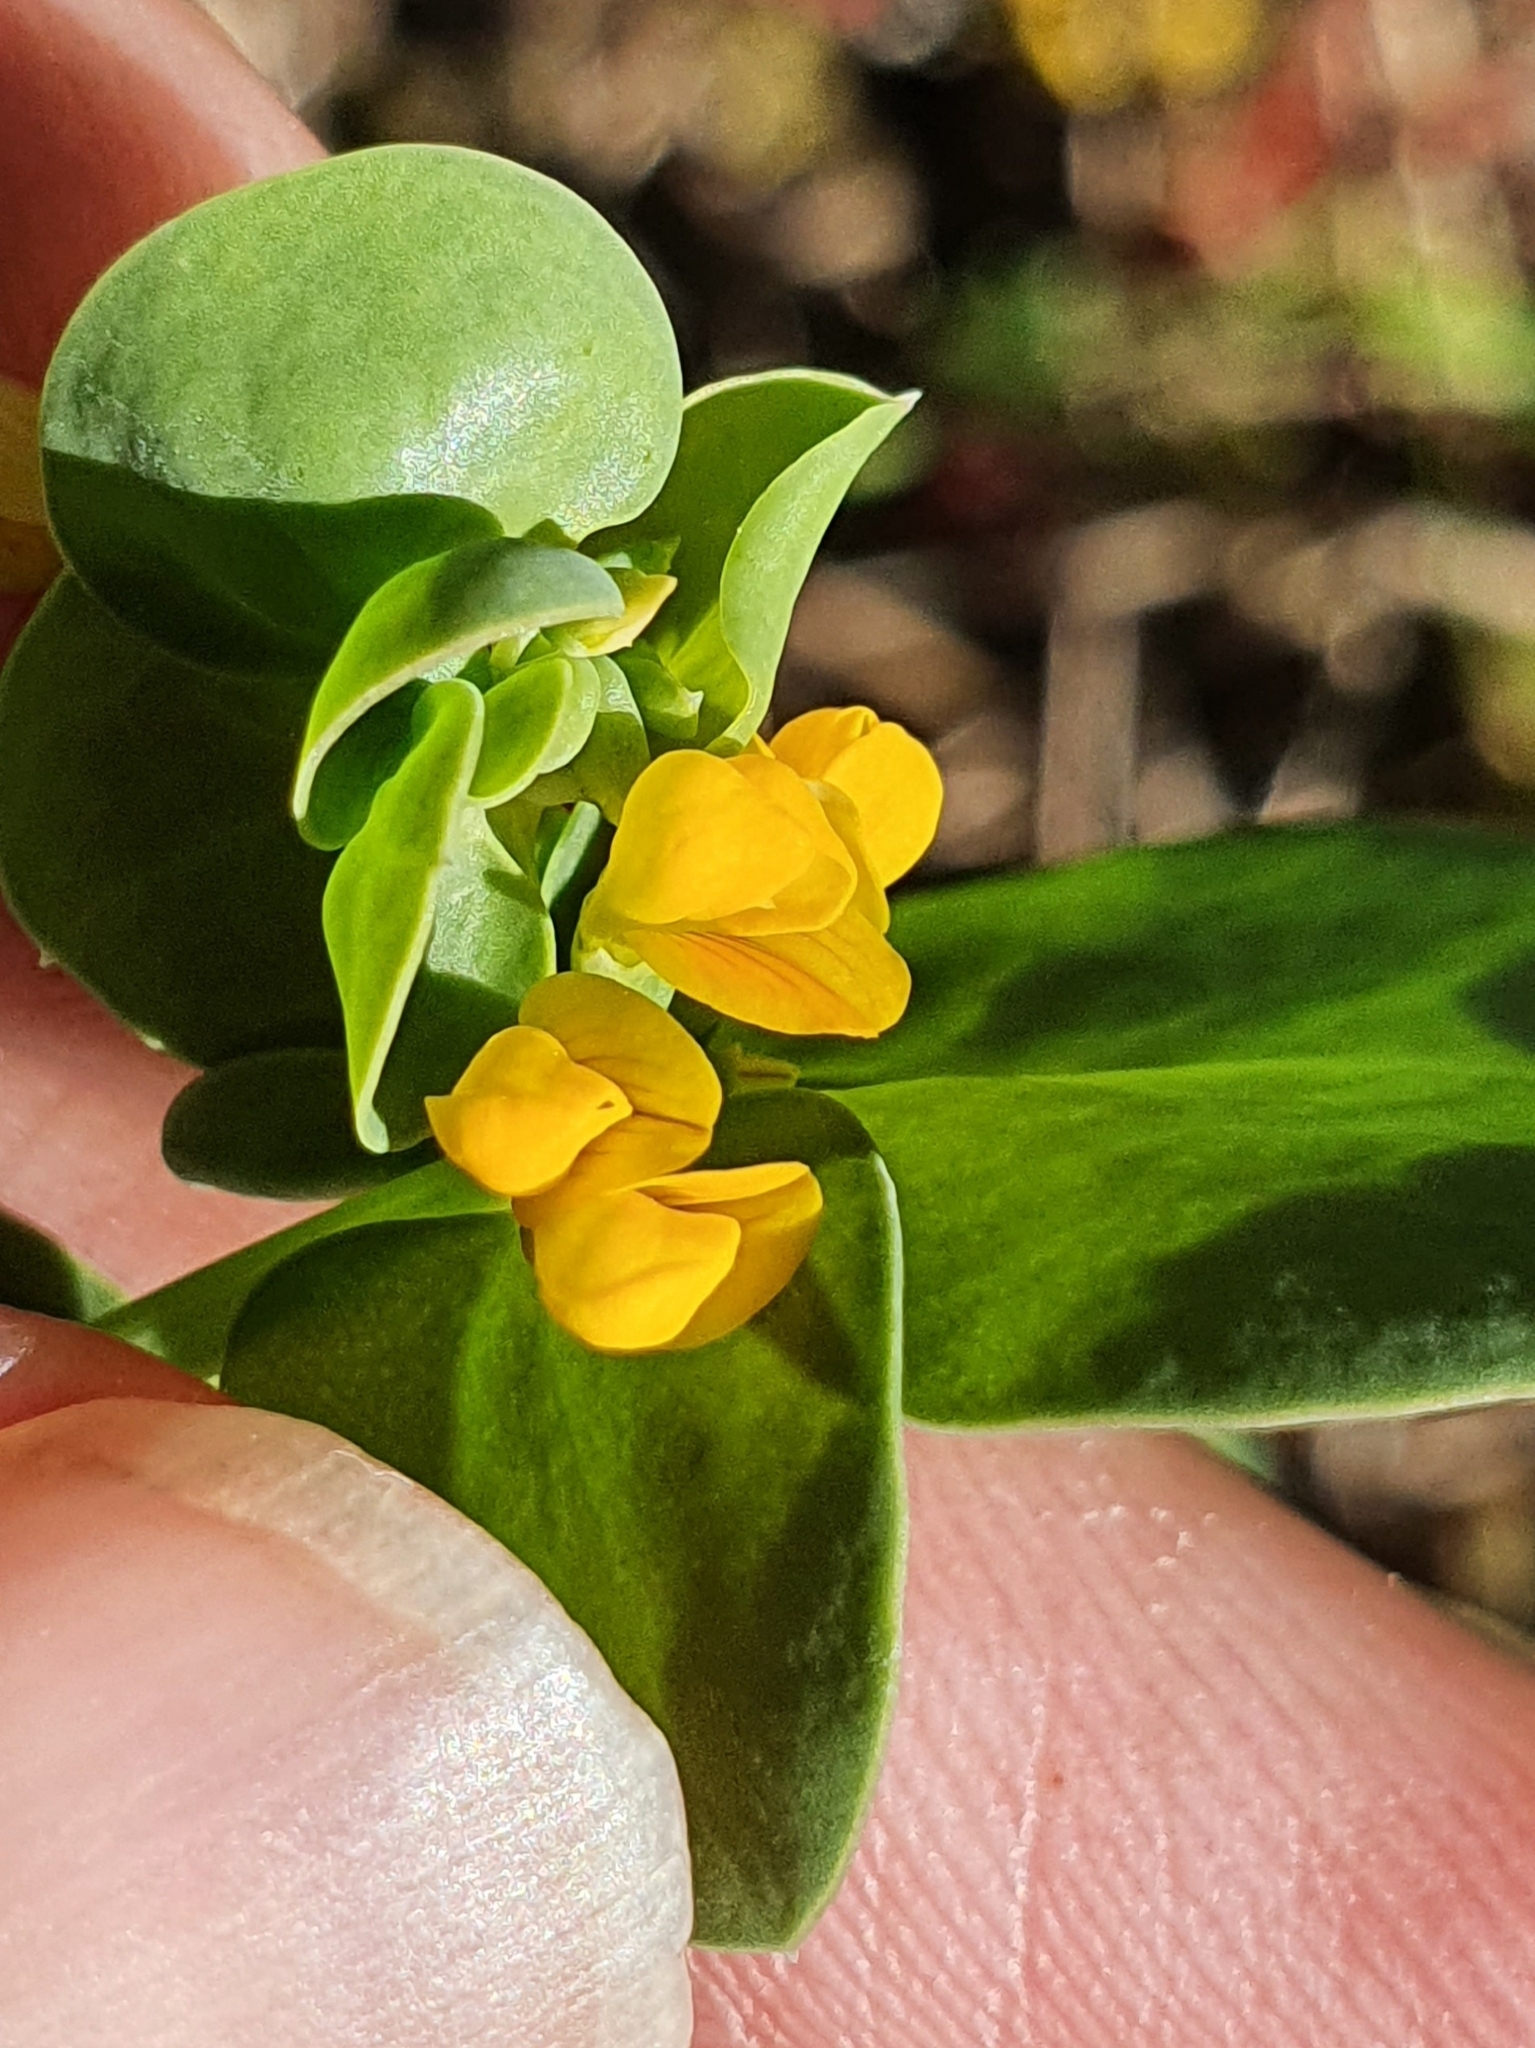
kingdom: Plantae
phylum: Tracheophyta
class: Magnoliopsida
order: Fabales
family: Fabaceae
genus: Coronilla
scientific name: Coronilla scorpioides
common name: Annual scorpion-vetch
